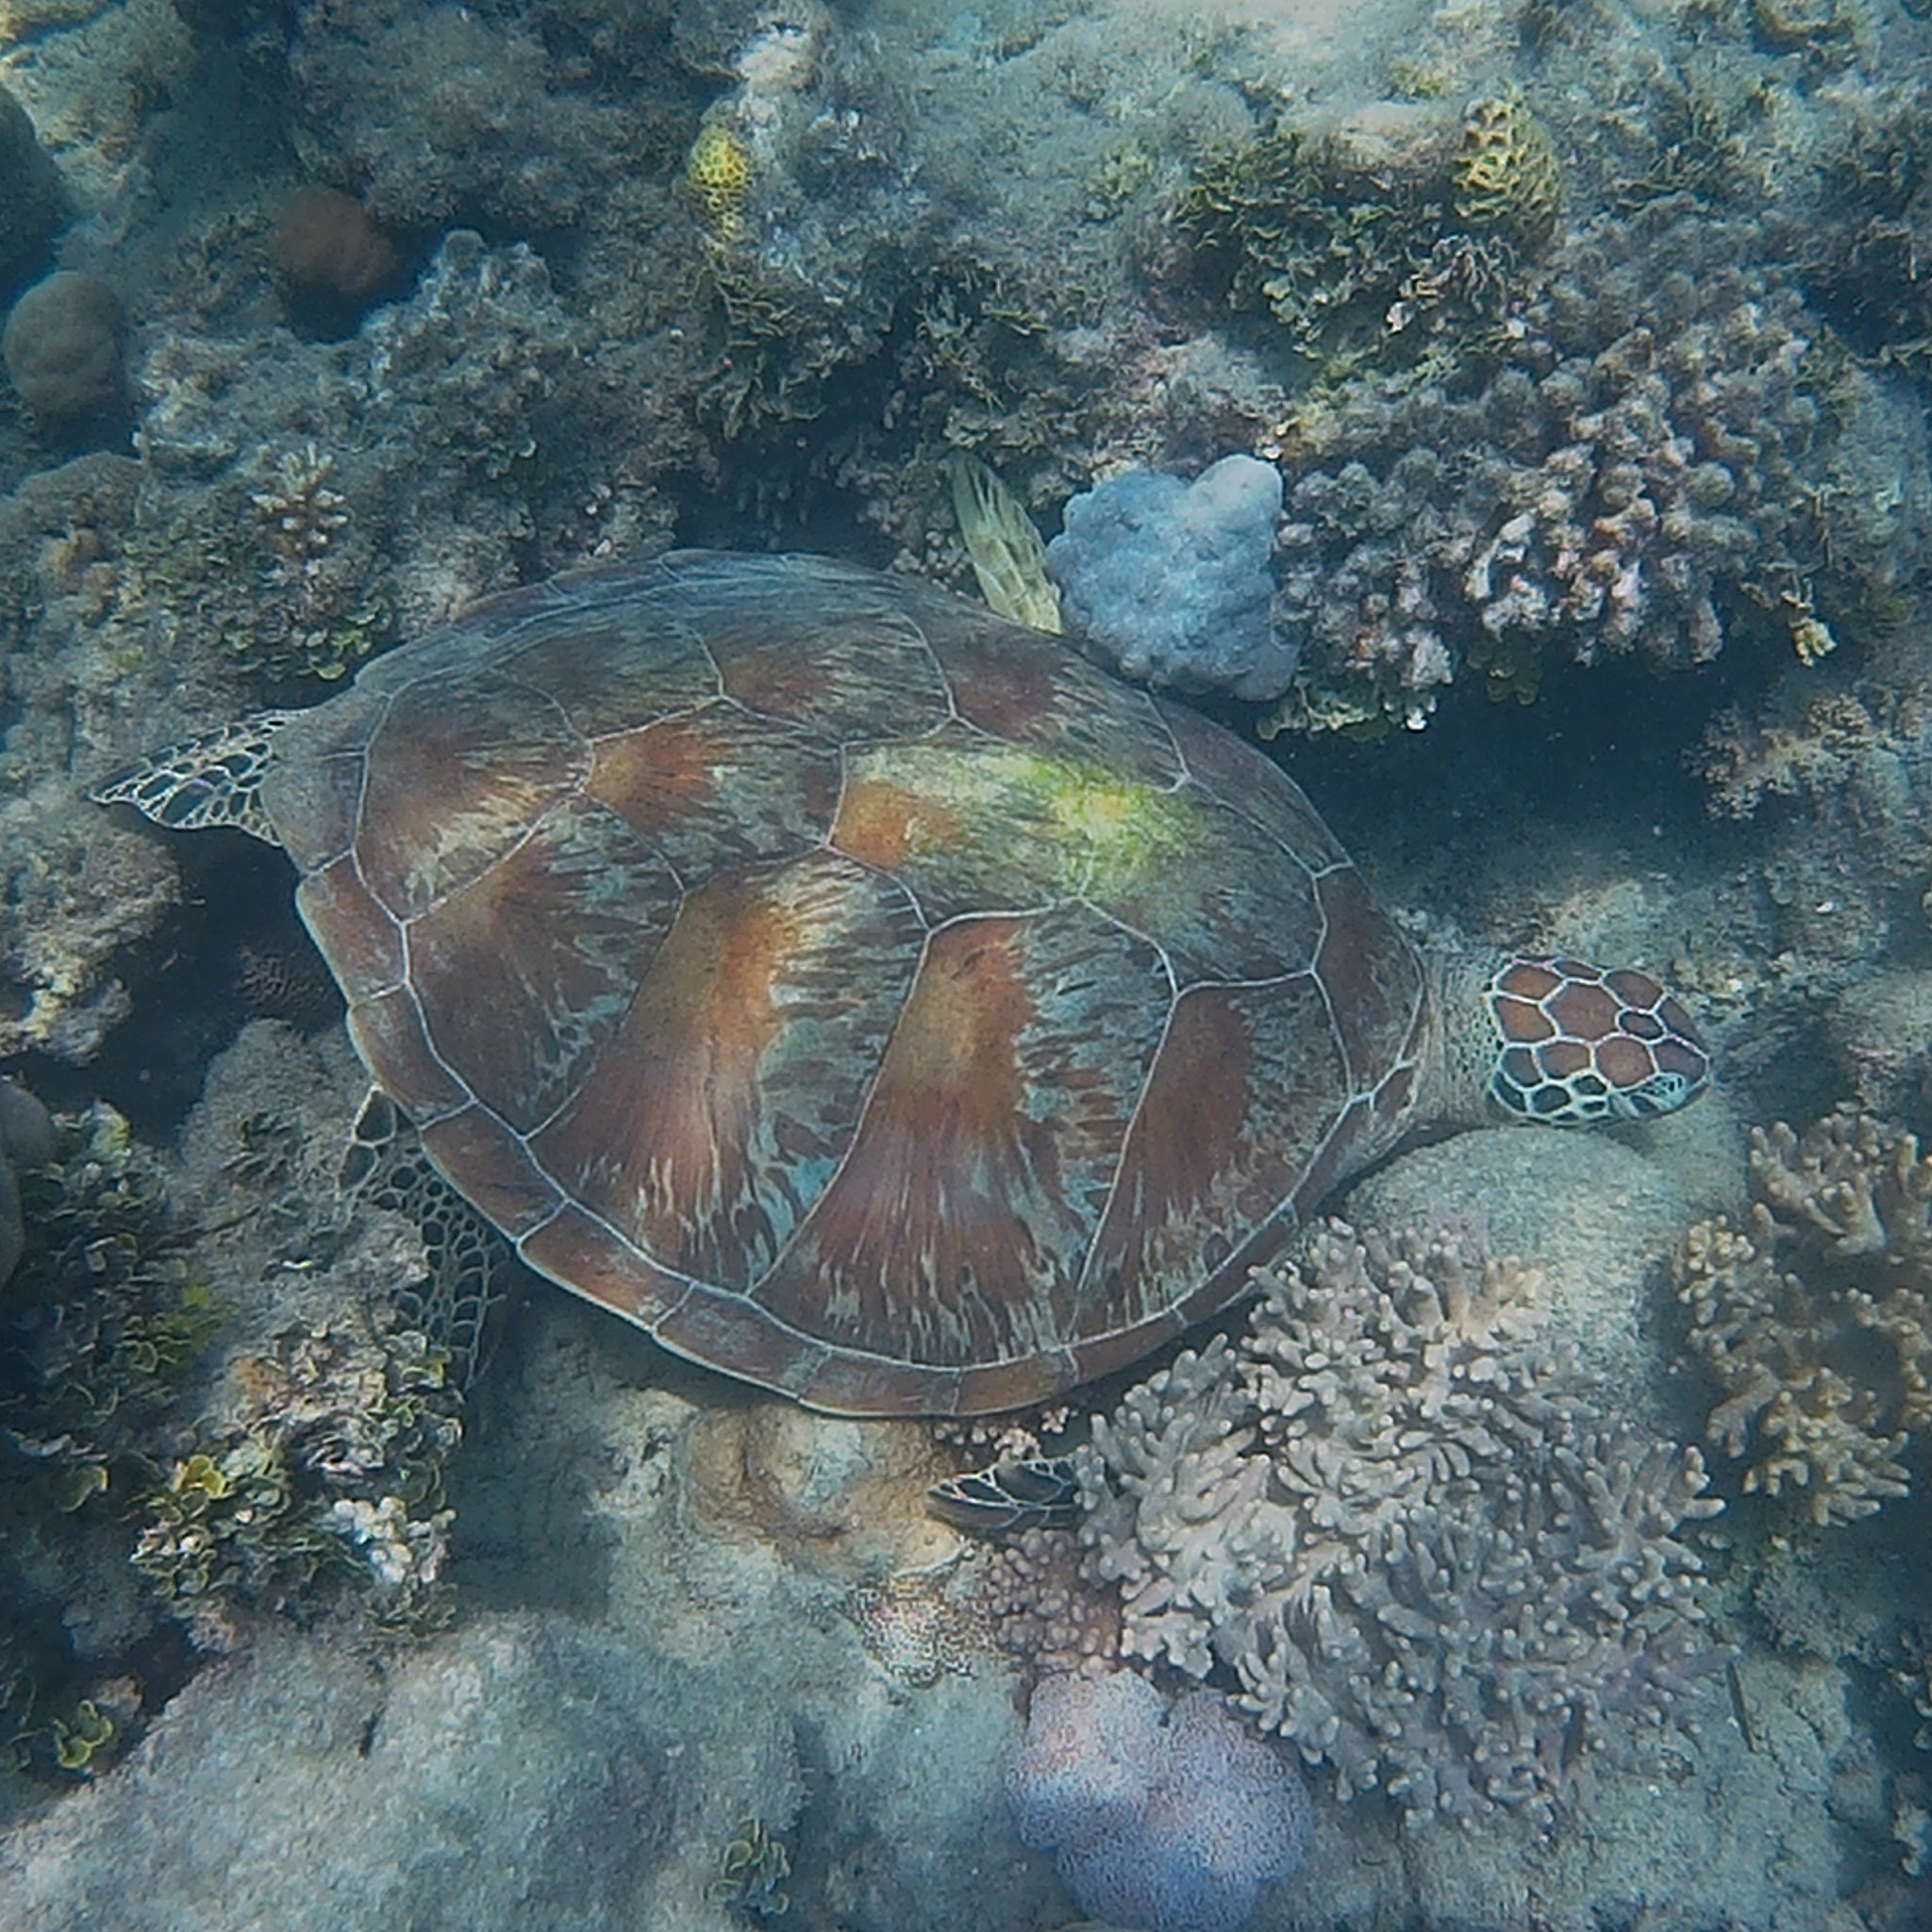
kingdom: Animalia
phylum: Chordata
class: Testudines
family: Cheloniidae
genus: Chelonia
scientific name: Chelonia mydas
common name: Green turtle
